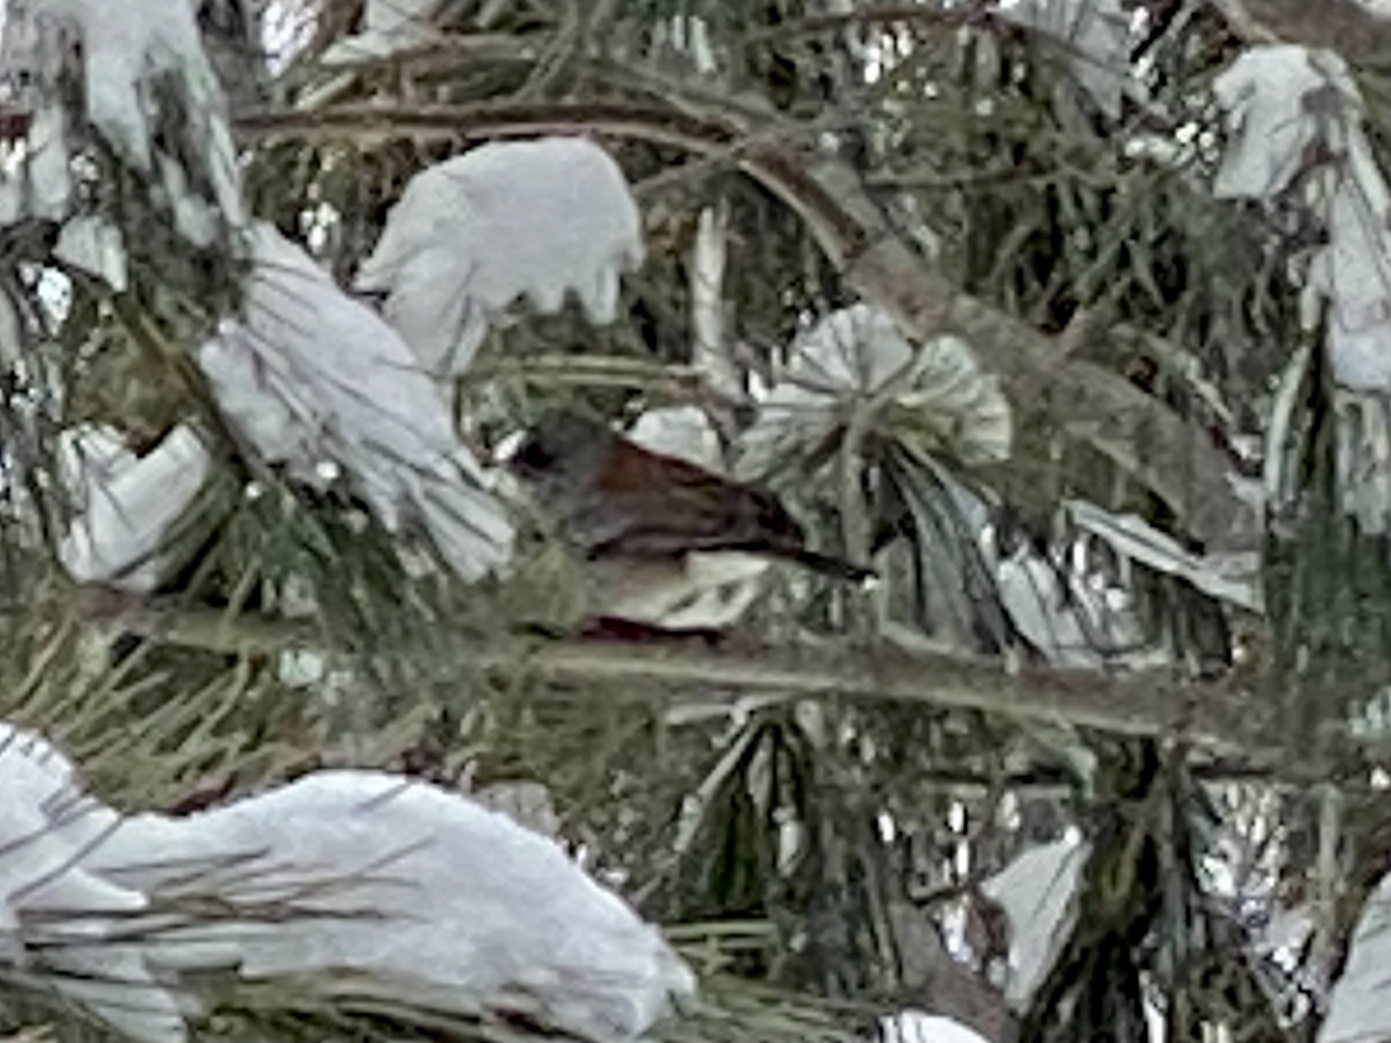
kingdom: Animalia
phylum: Chordata
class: Aves
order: Passeriformes
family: Passerellidae
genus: Junco
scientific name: Junco hyemalis
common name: Dark-eyed junco
